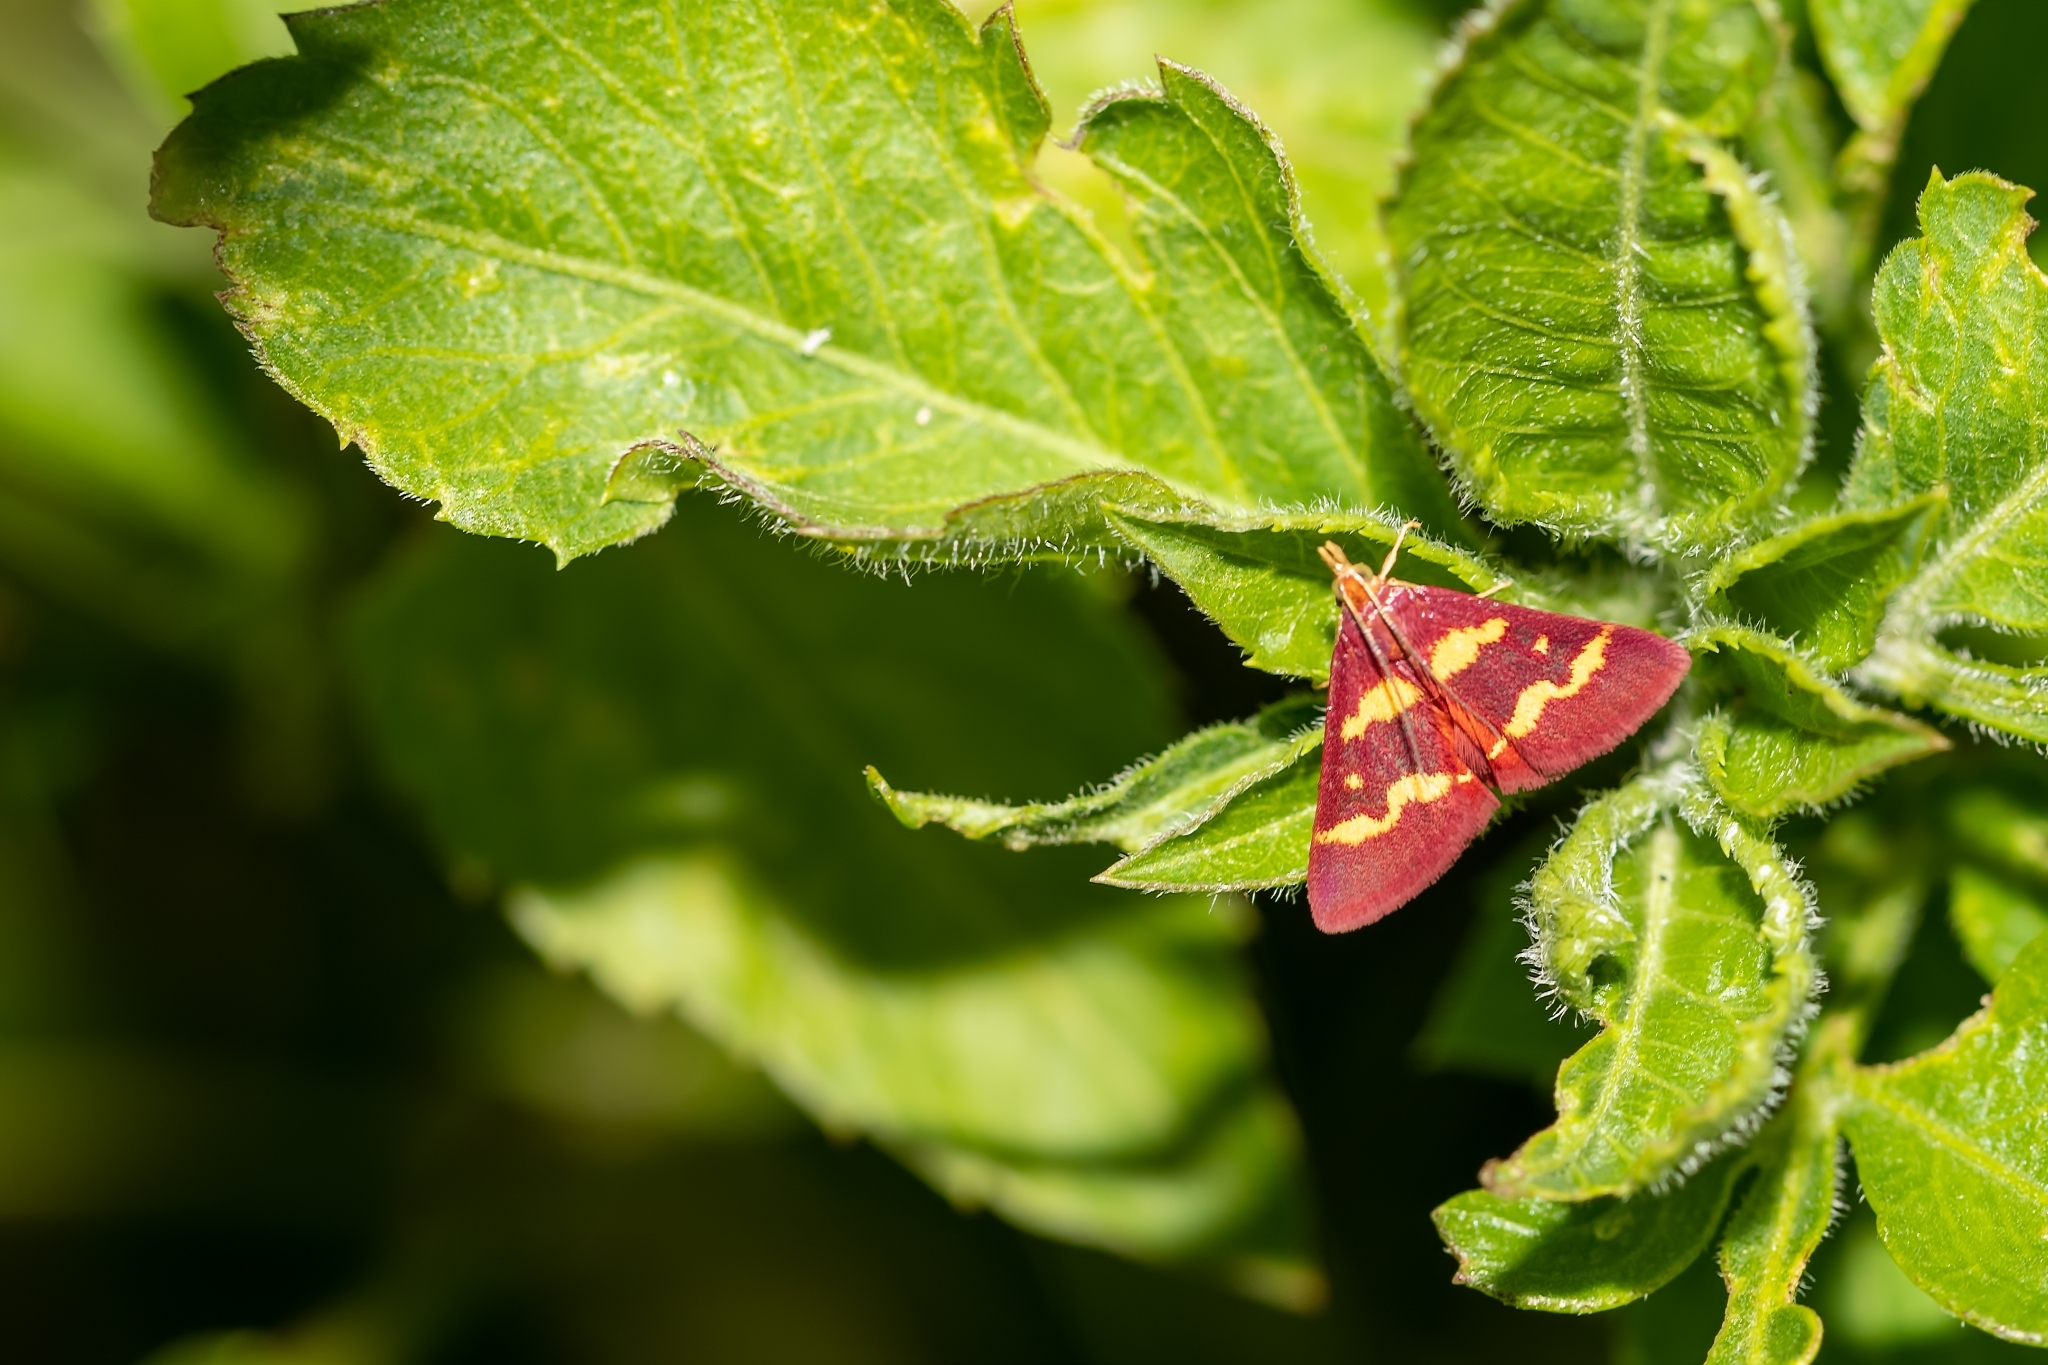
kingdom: Animalia
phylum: Arthropoda
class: Insecta
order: Lepidoptera
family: Crambidae
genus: Pyrausta
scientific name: Pyrausta tyralis
